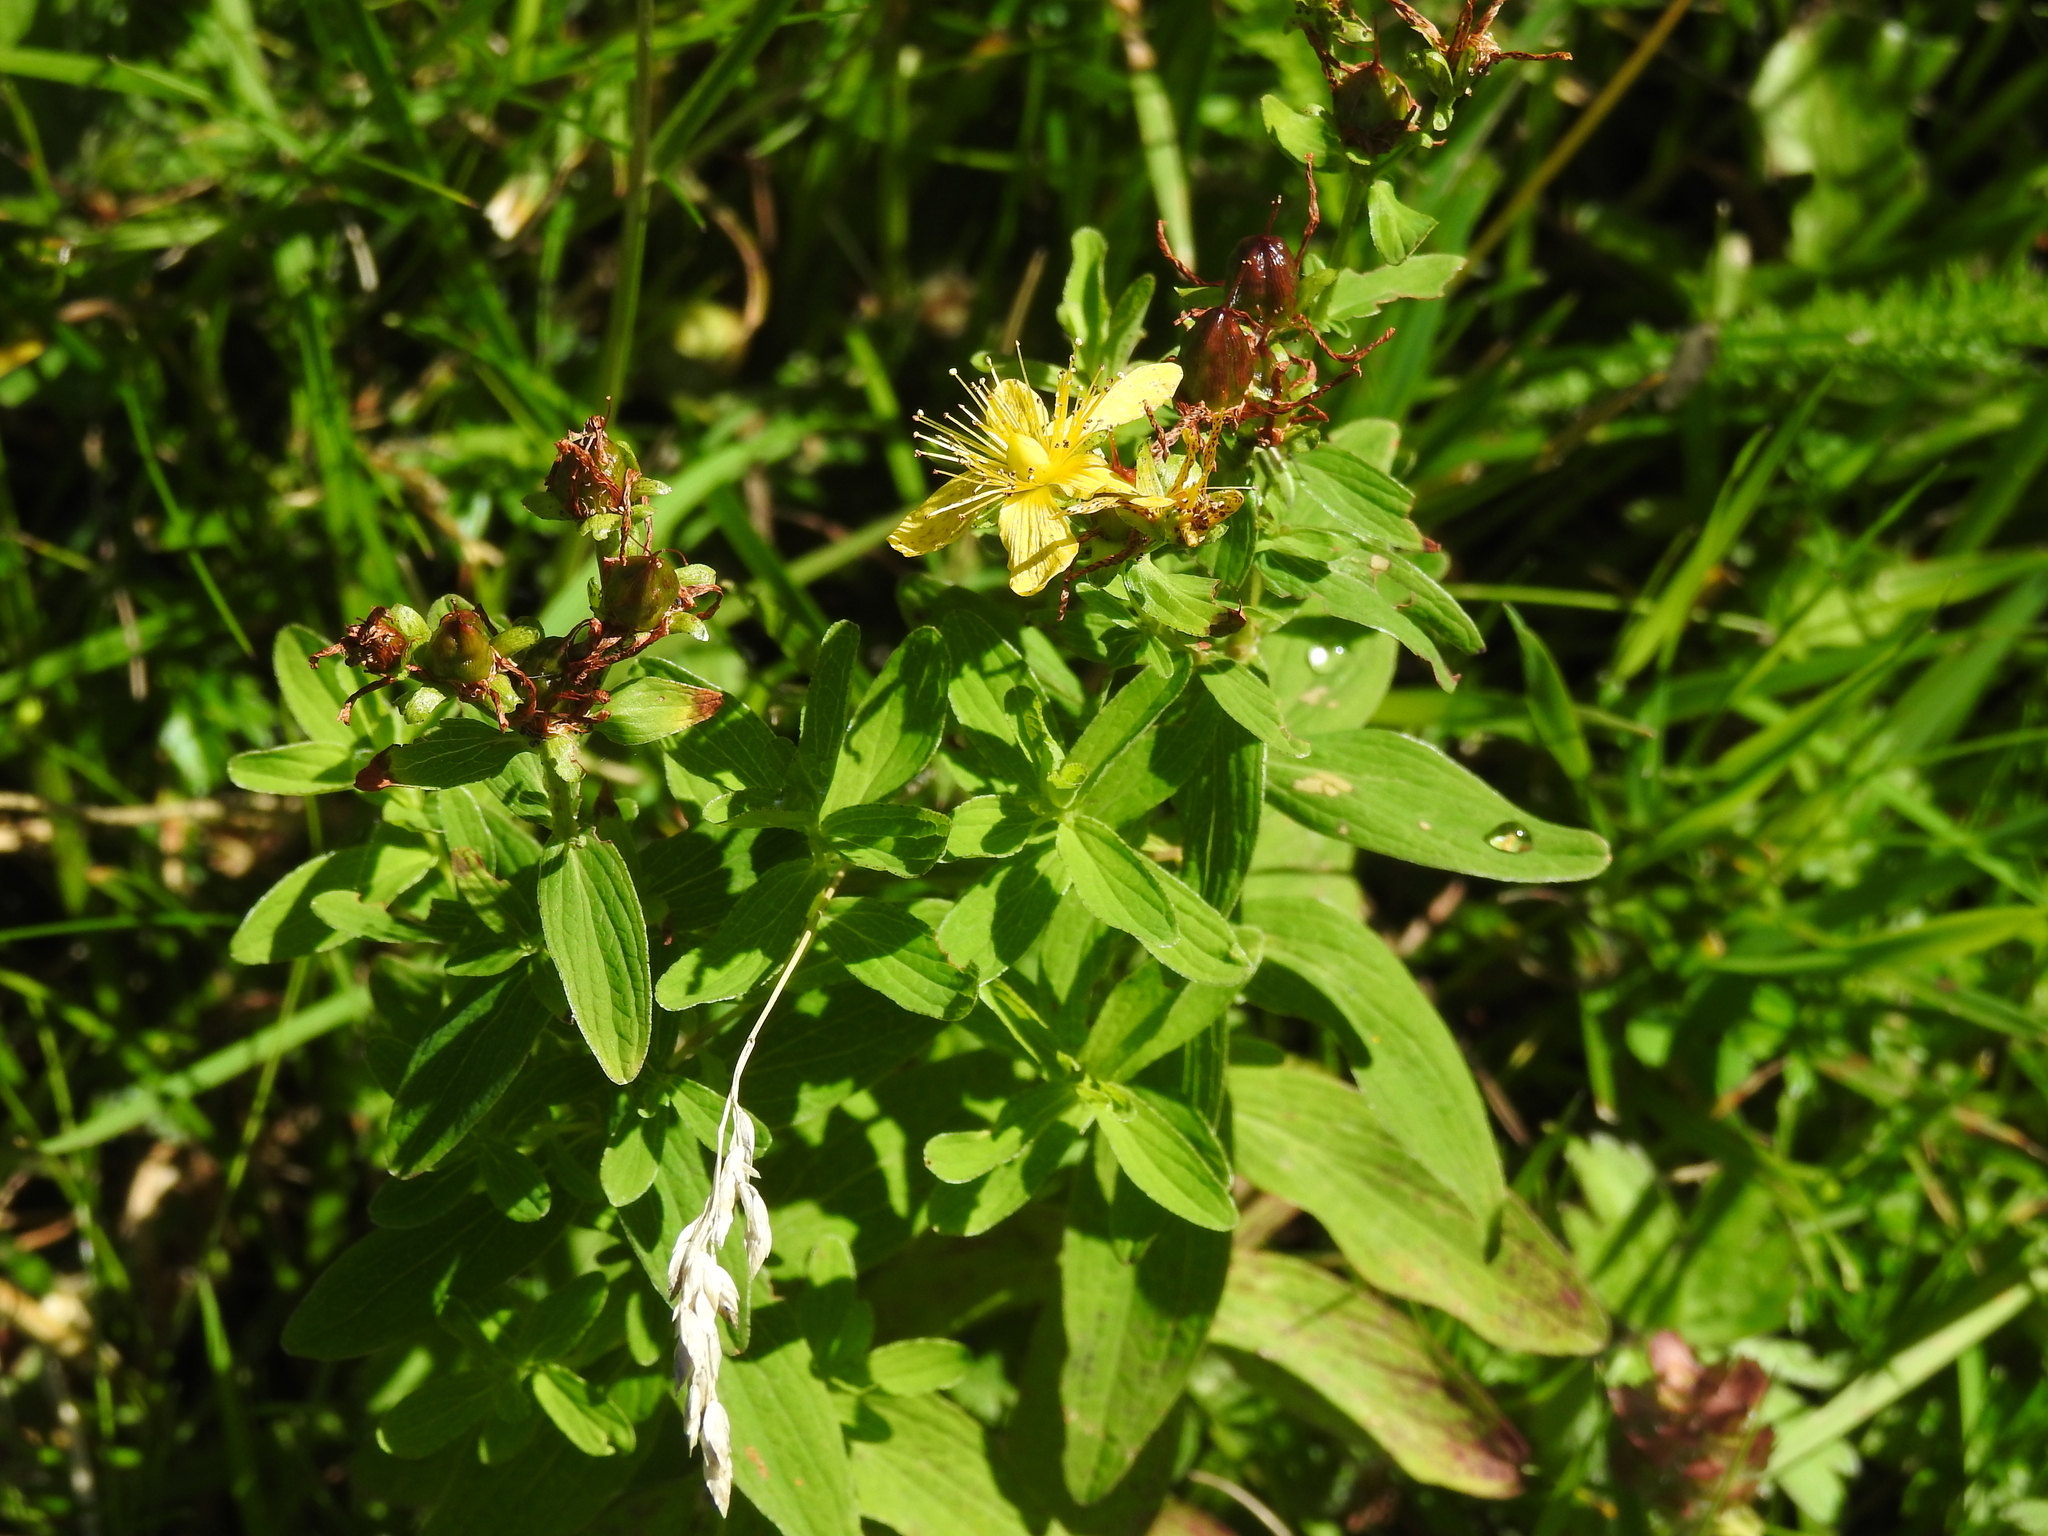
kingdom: Plantae
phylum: Tracheophyta
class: Magnoliopsida
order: Malpighiales
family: Hypericaceae
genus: Hypericum
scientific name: Hypericum maculatum
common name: Imperforate st. john's-wort
